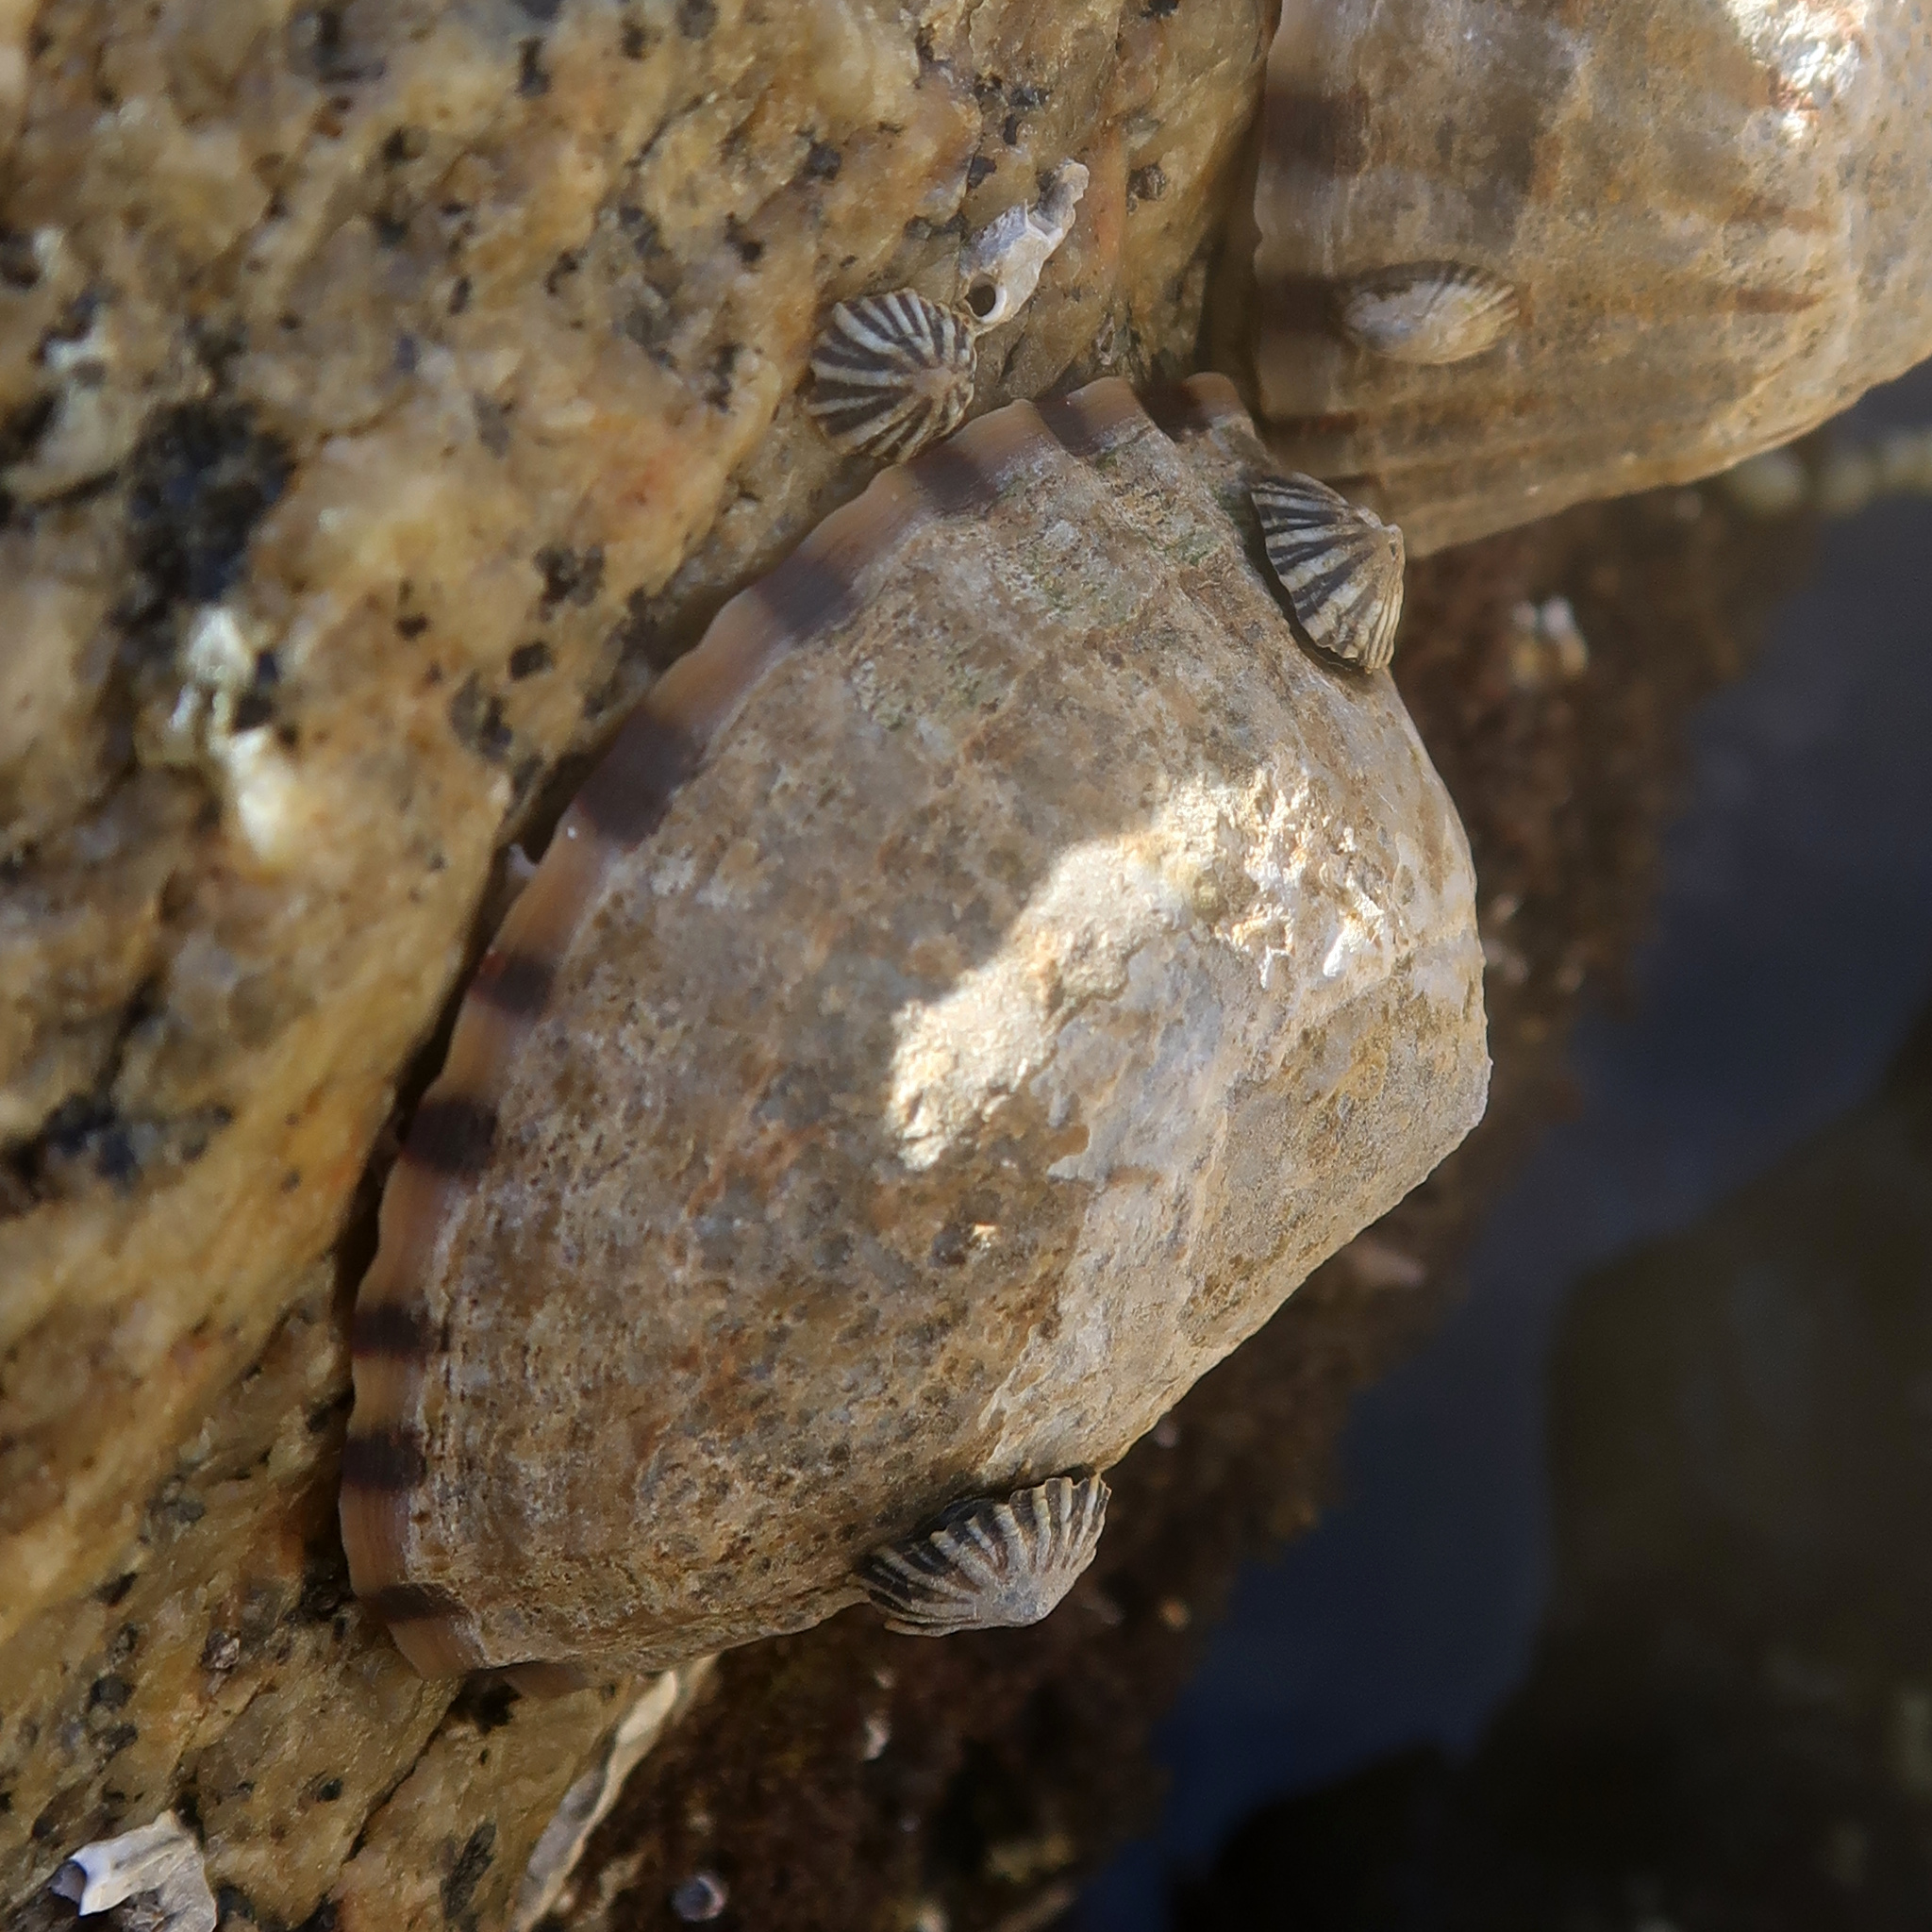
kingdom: Animalia
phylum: Mollusca
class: Gastropoda
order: Siphonariida
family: Siphonariidae
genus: Siphonaria
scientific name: Siphonaria diemenensis
